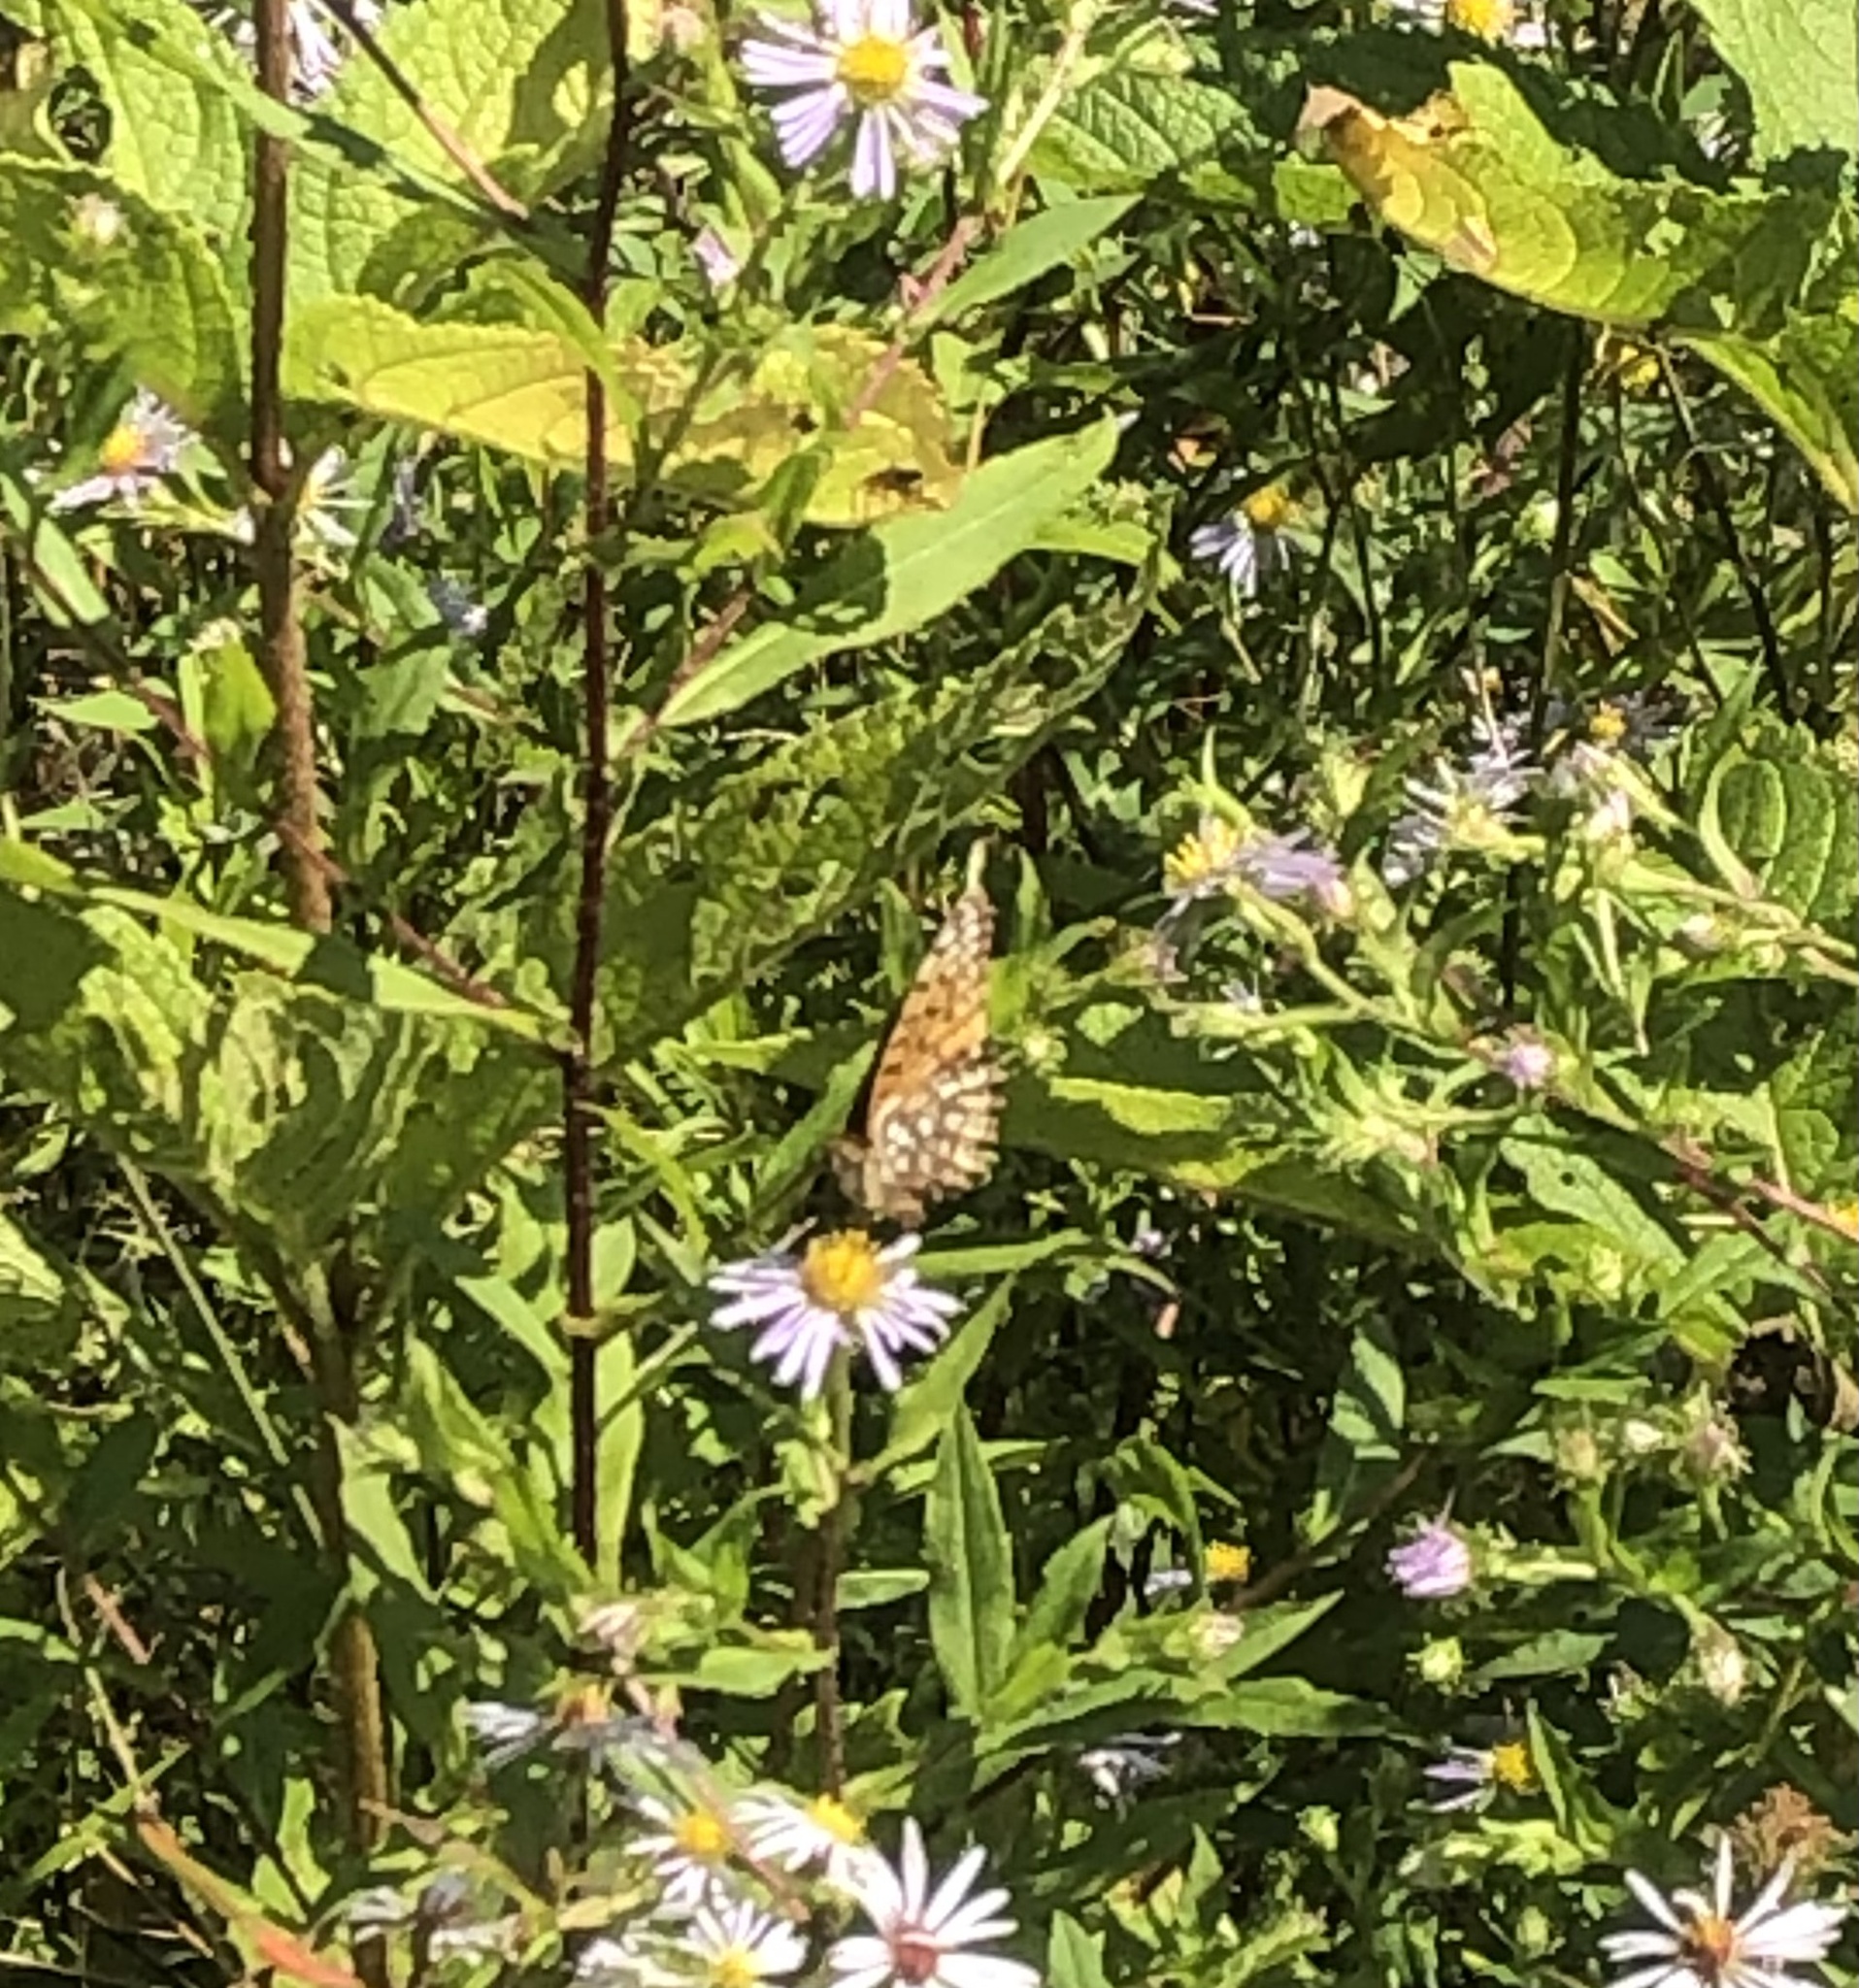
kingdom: Animalia
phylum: Arthropoda
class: Insecta
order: Lepidoptera
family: Nymphalidae
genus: Speyeria
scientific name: Speyeria atlantis
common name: Atlantis fritillary
